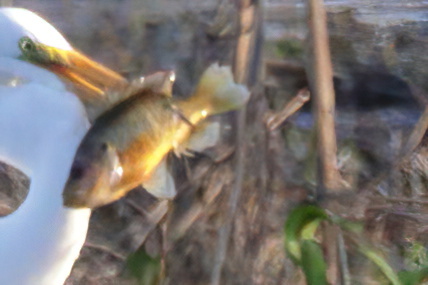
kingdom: Animalia
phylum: Chordata
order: Perciformes
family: Centrarchidae
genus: Lepomis
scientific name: Lepomis gulosus
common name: Warmouth
